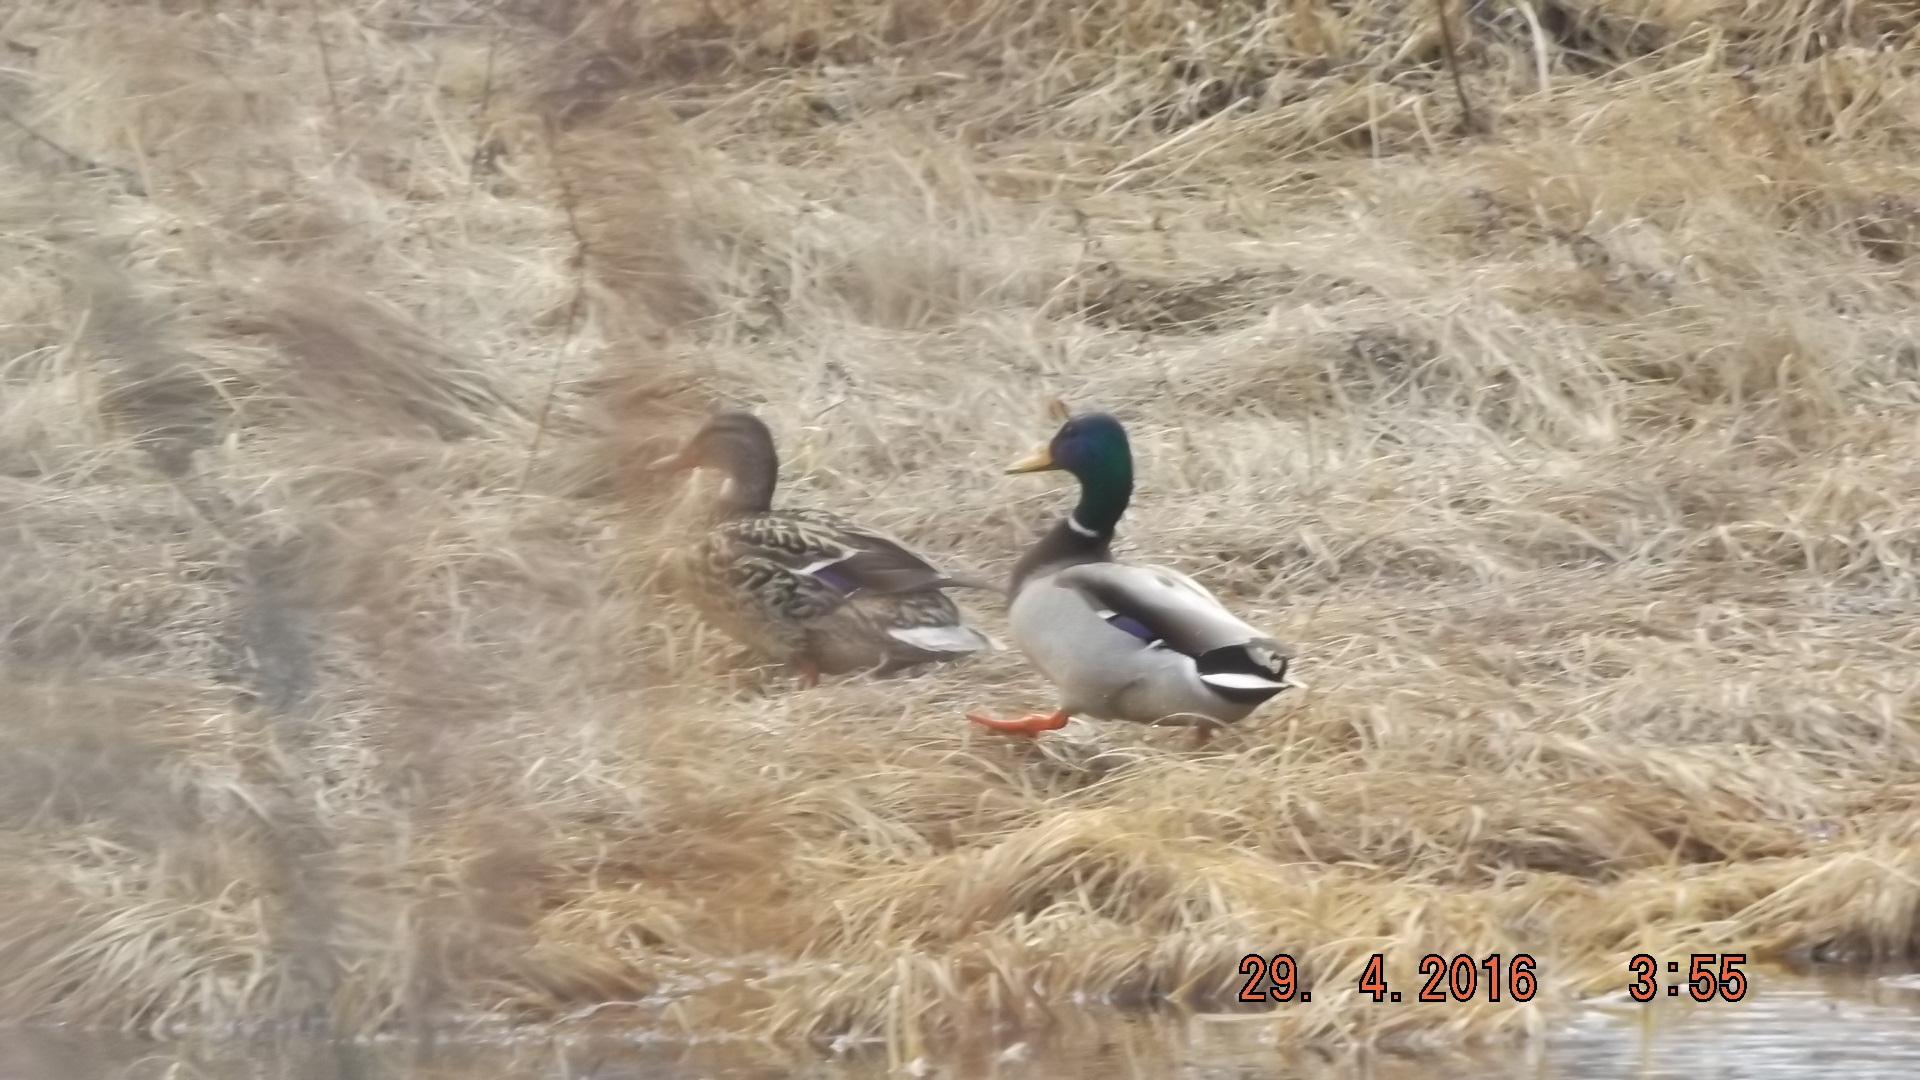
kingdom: Animalia
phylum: Chordata
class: Aves
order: Anseriformes
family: Anatidae
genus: Anas
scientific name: Anas platyrhynchos
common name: Mallard
